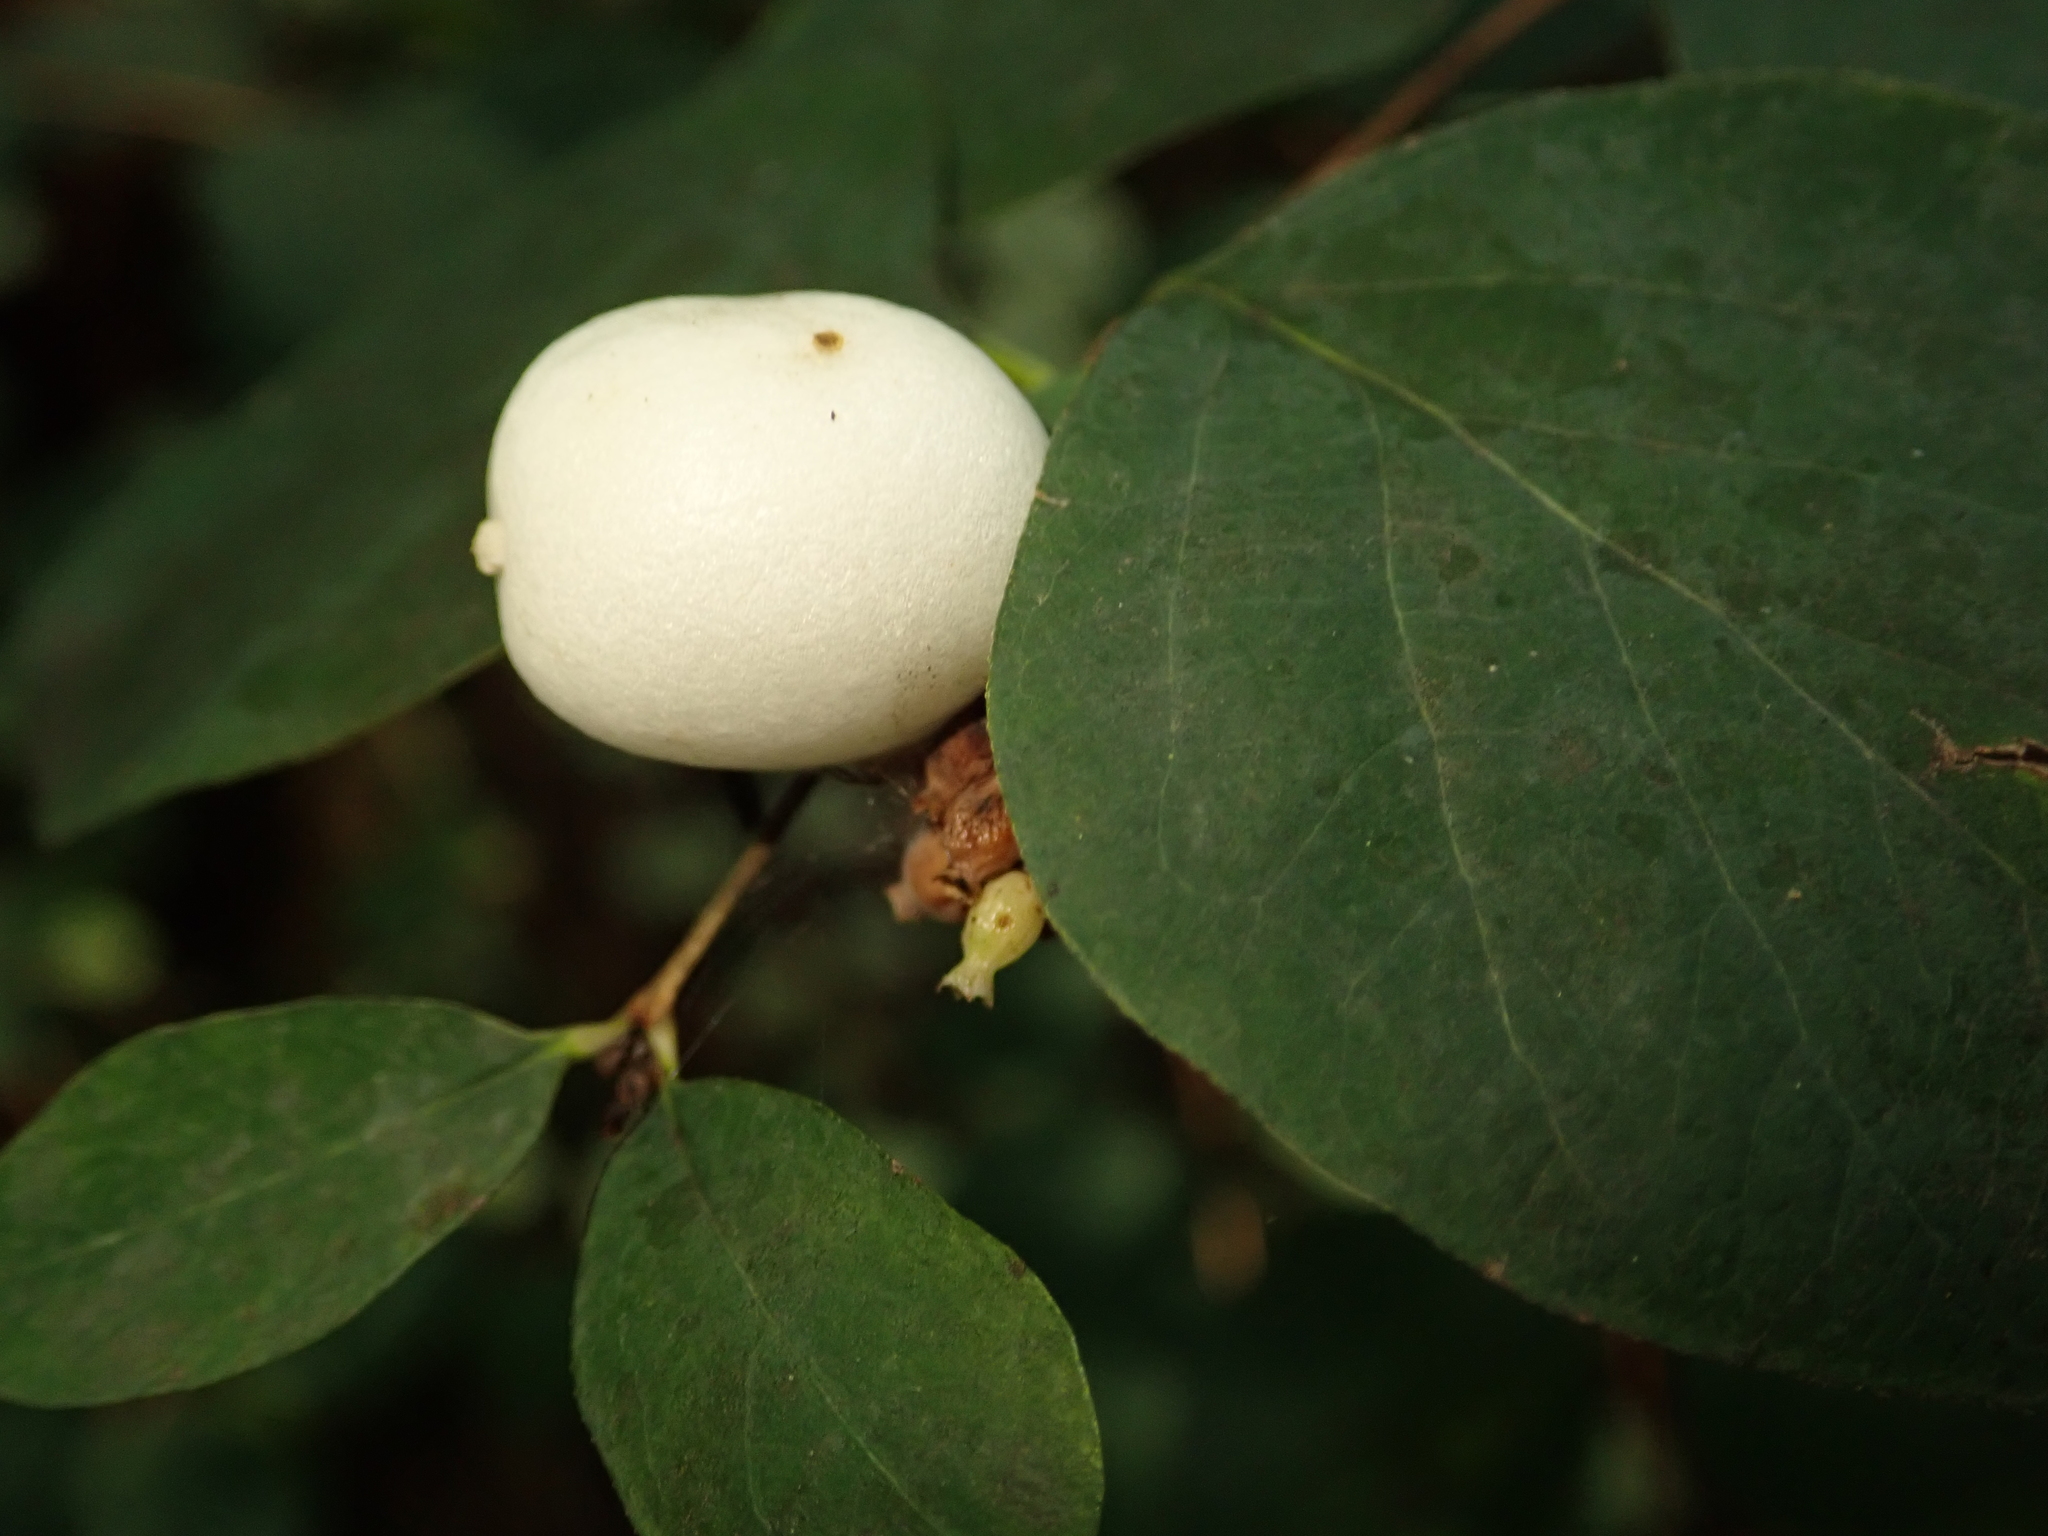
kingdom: Plantae
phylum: Tracheophyta
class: Magnoliopsida
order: Dipsacales
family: Caprifoliaceae
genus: Symphoricarpos
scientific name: Symphoricarpos albus
